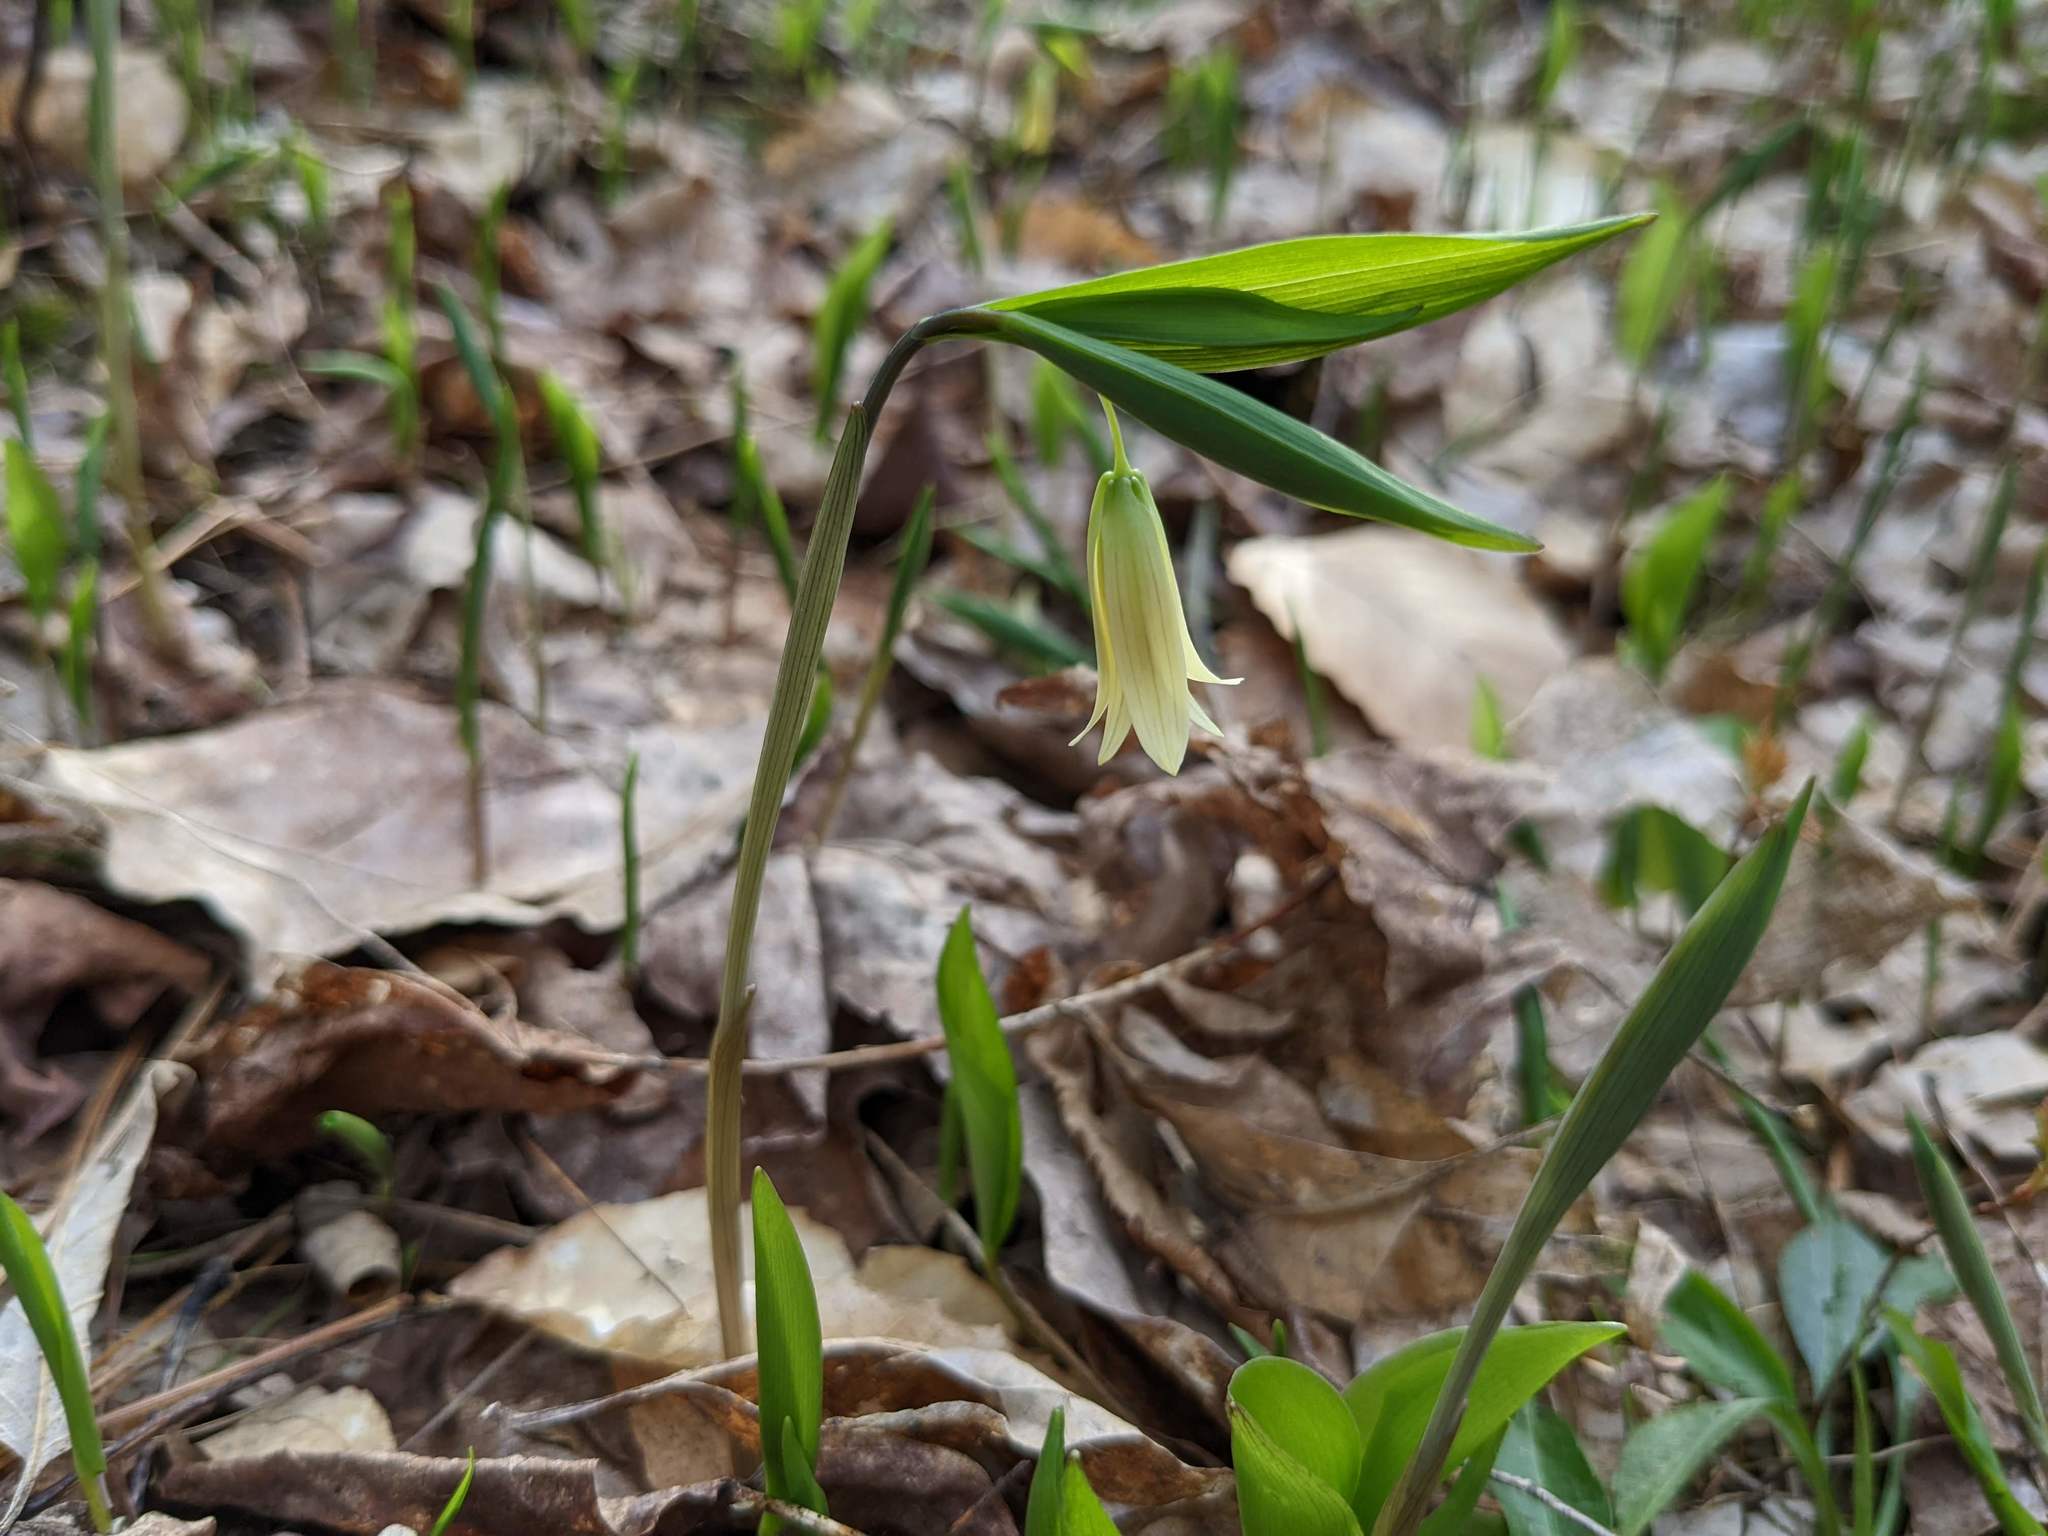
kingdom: Plantae
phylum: Tracheophyta
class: Liliopsida
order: Liliales
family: Colchicaceae
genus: Uvularia
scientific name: Uvularia sessilifolia
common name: Straw-lily
